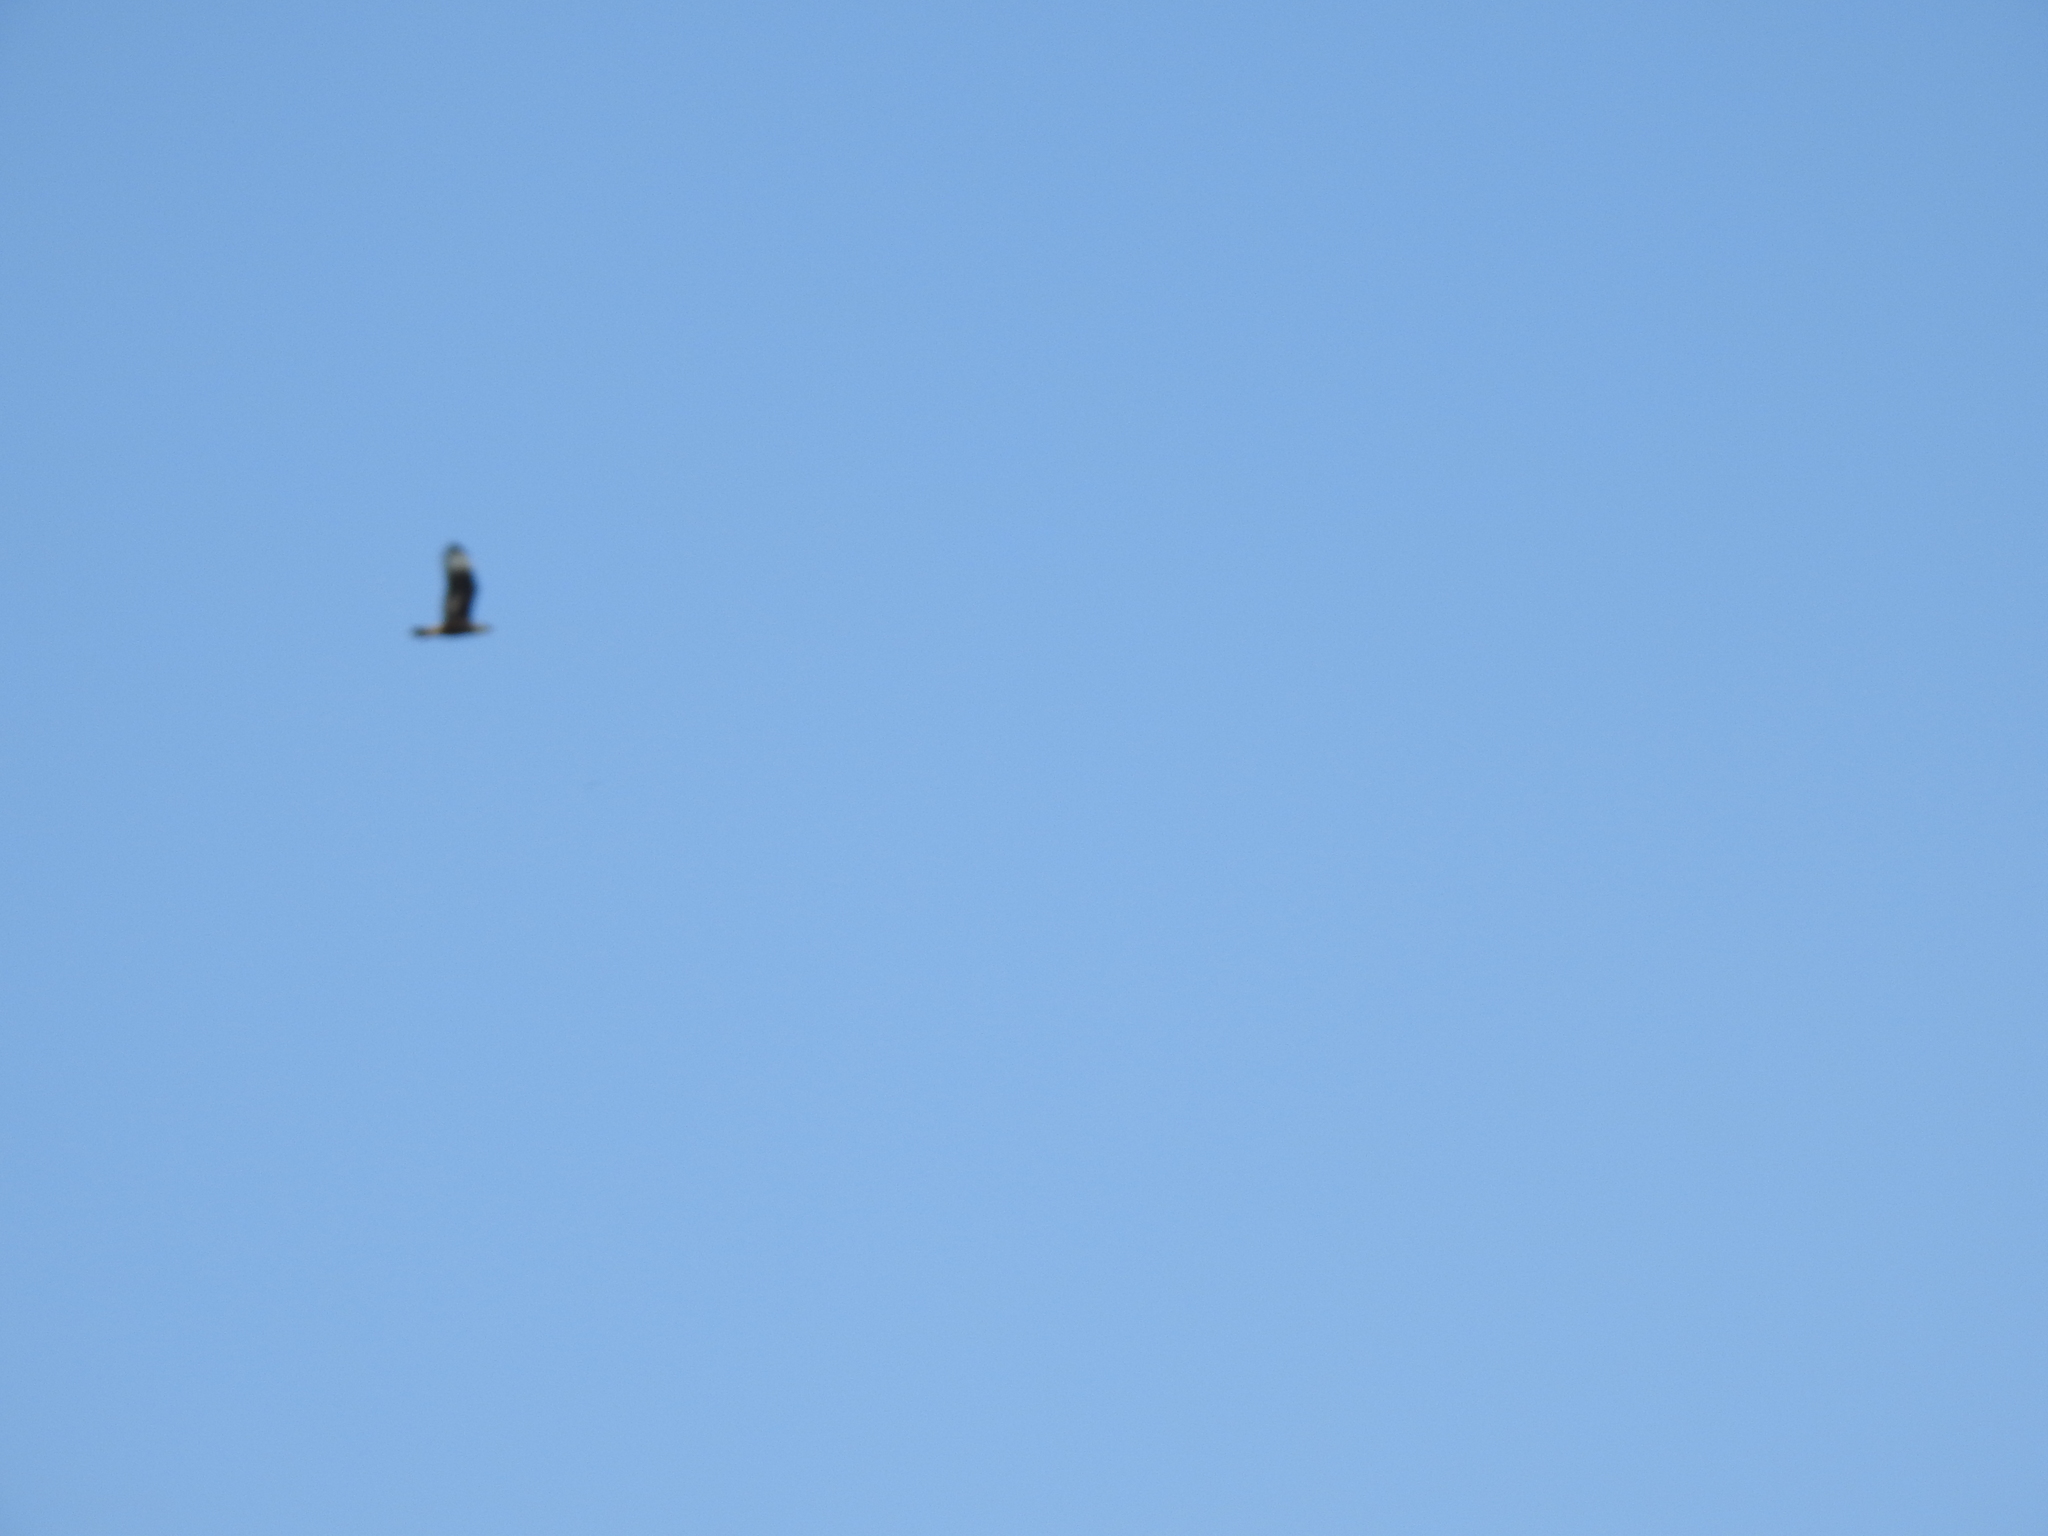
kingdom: Animalia
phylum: Chordata
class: Aves
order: Falconiformes
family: Falconidae
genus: Caracara
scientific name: Caracara plancus
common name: Southern caracara
